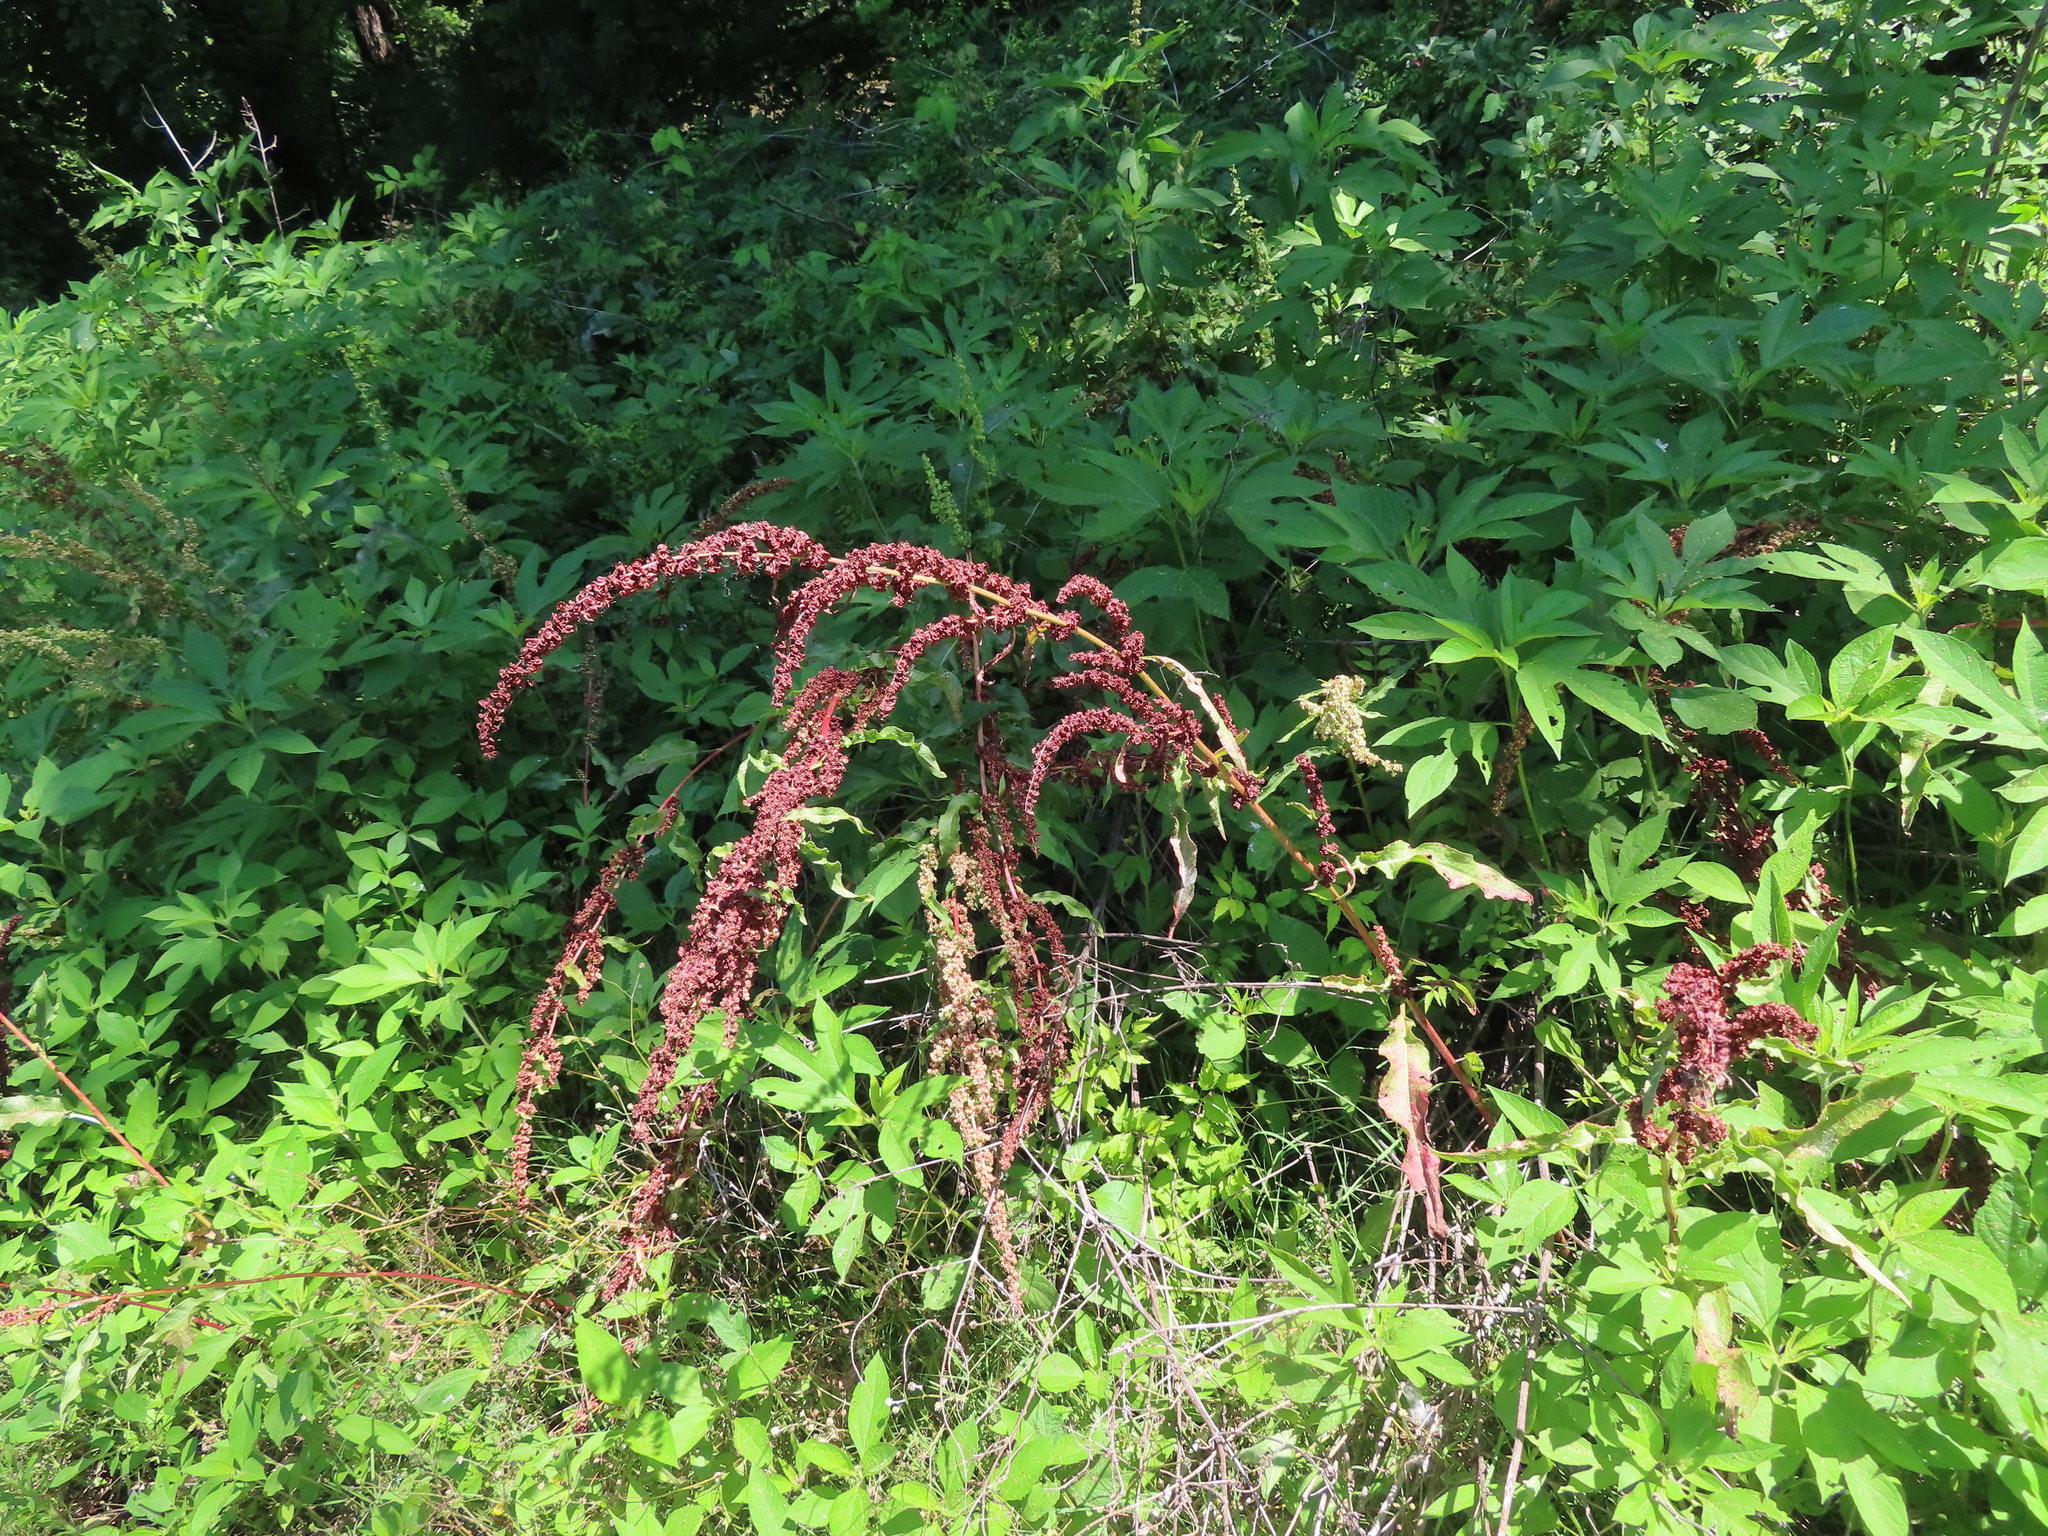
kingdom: Plantae
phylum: Tracheophyta
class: Magnoliopsida
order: Caryophyllales
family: Polygonaceae
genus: Rumex
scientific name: Rumex crispus
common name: Curled dock
